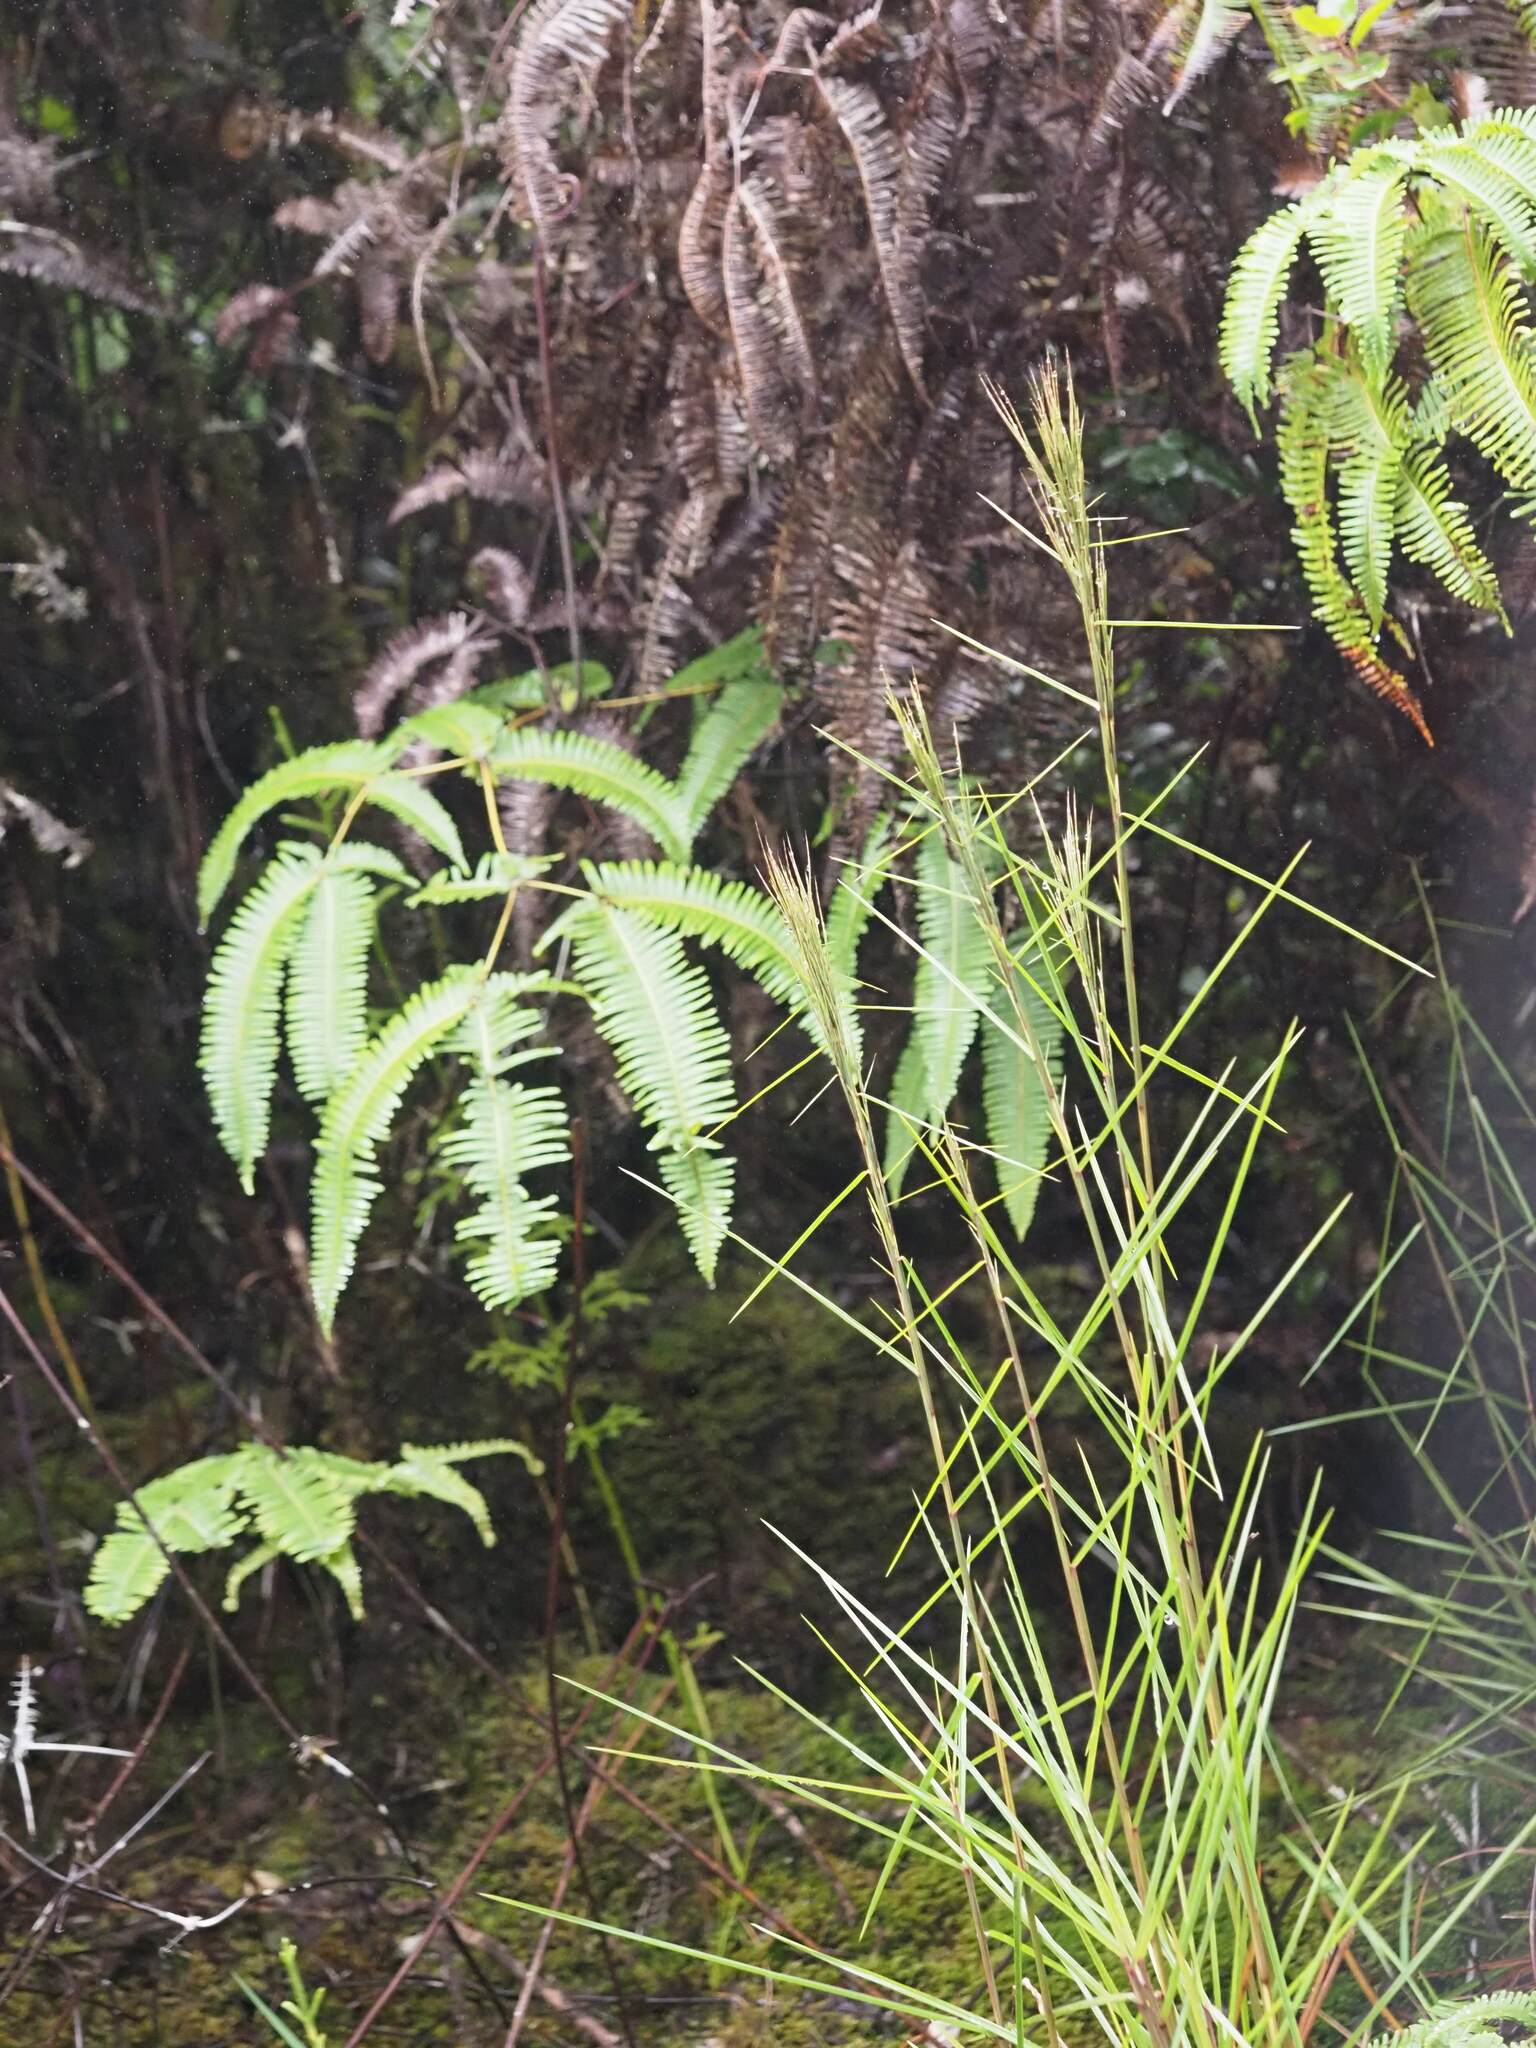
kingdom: Plantae
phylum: Tracheophyta
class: Liliopsida
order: Poales
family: Poaceae
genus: Schizachyrium
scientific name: Schizachyrium microstachyum
